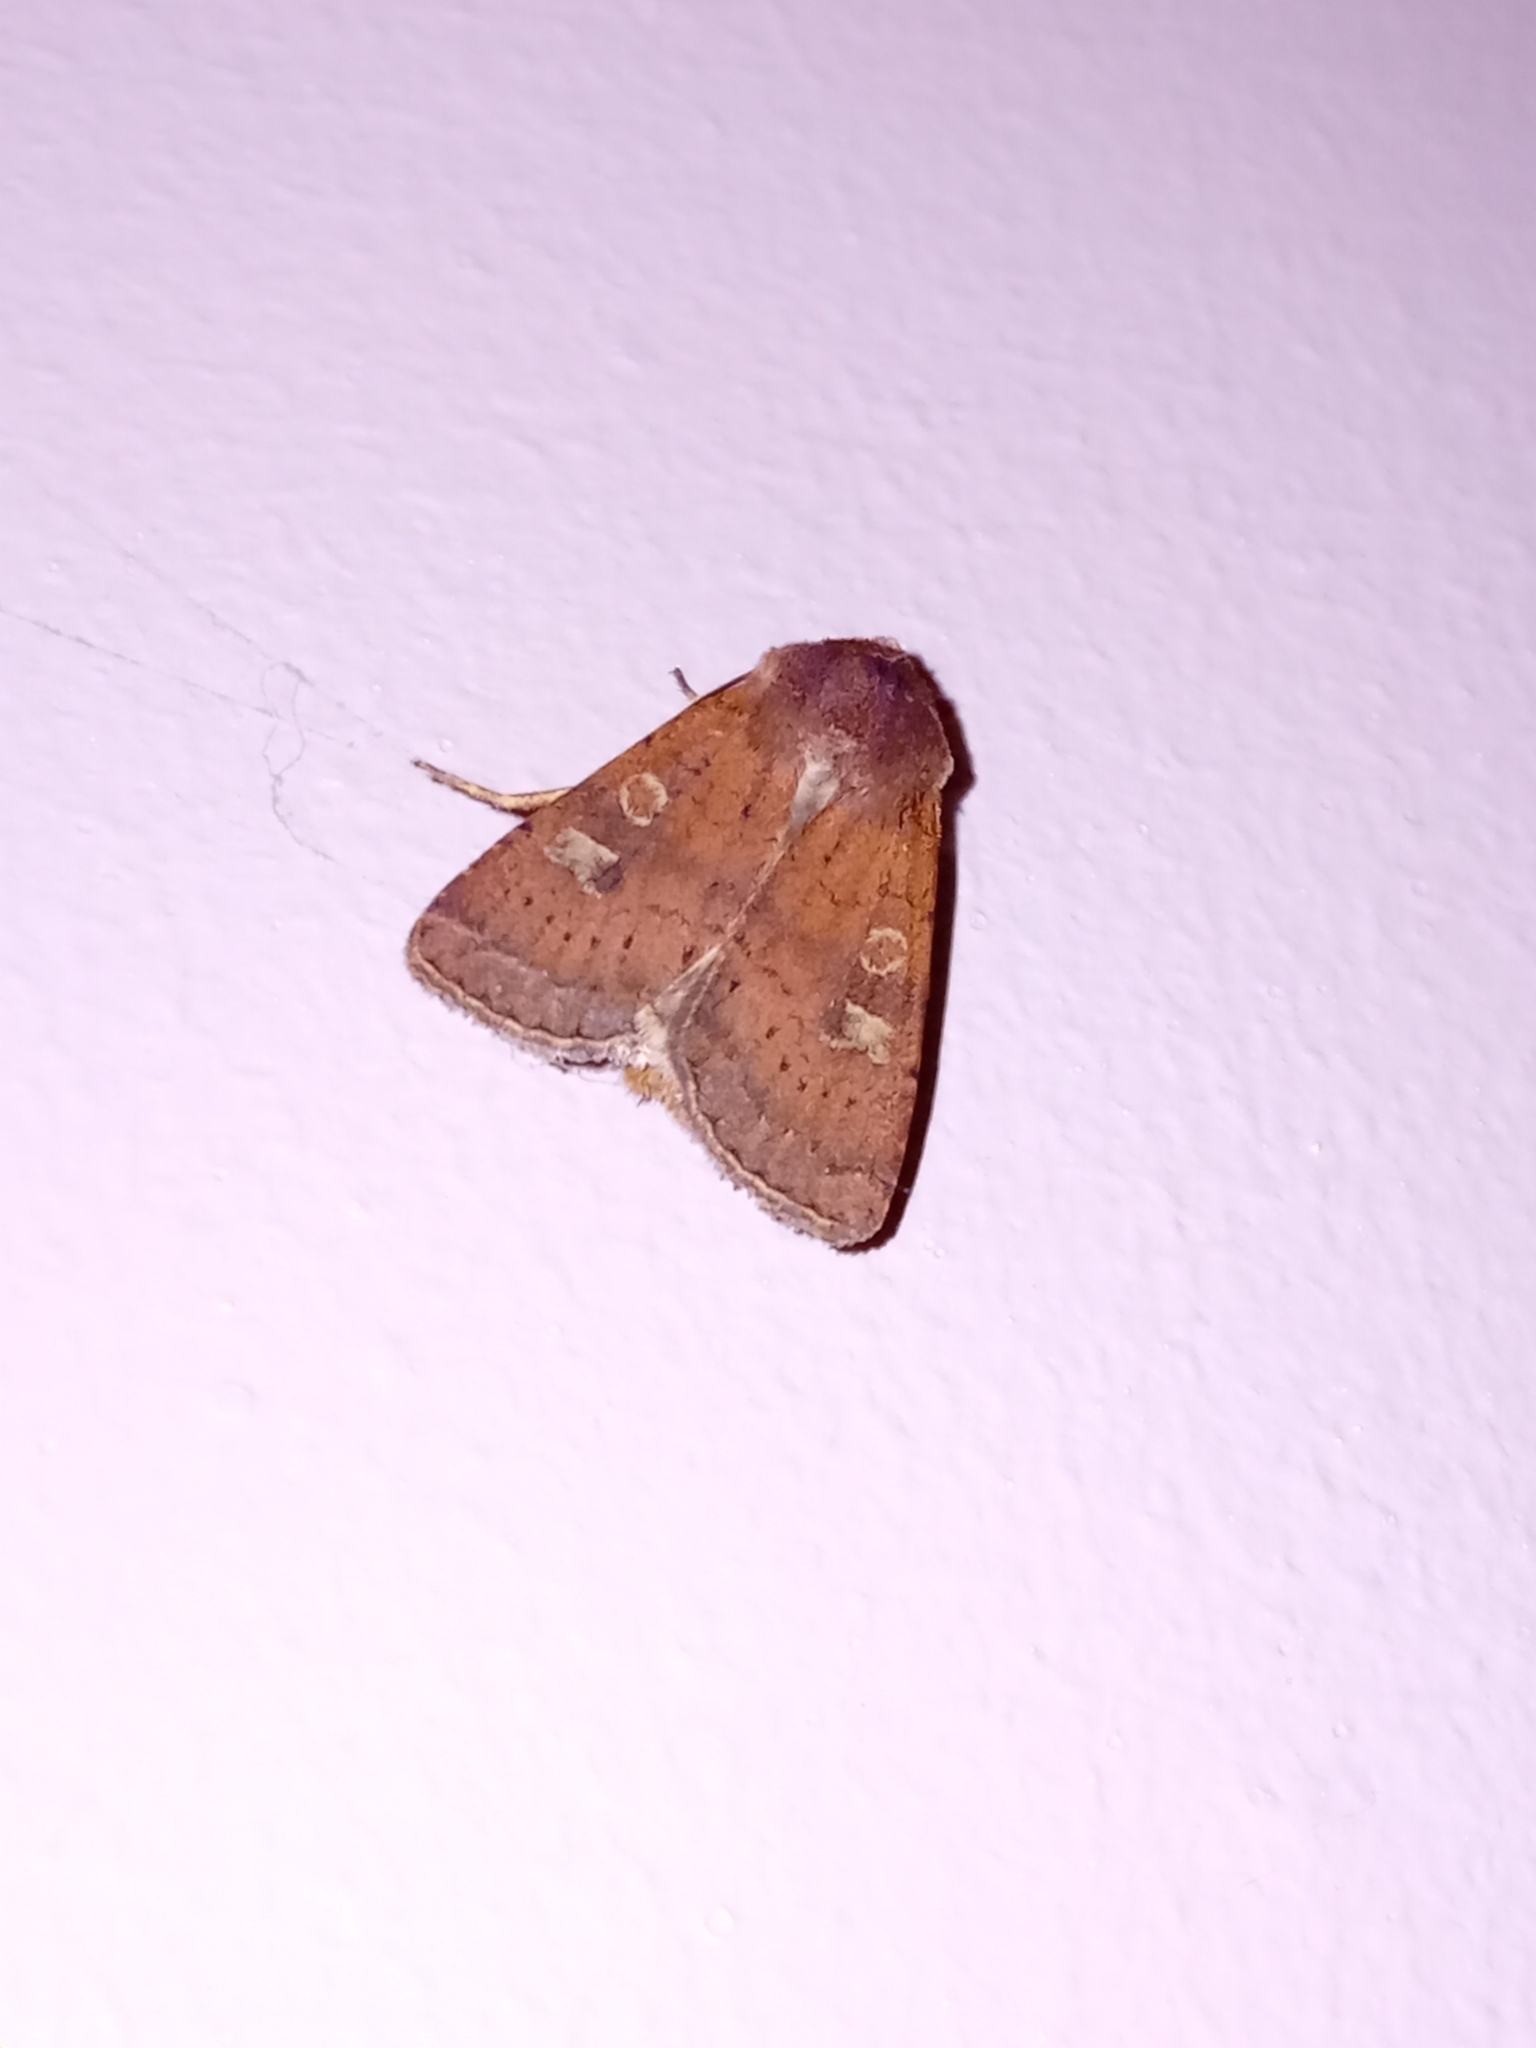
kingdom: Animalia
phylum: Arthropoda
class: Insecta
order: Lepidoptera
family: Noctuidae
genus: Xestia
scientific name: Xestia xanthographa
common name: Square-spot rustic
